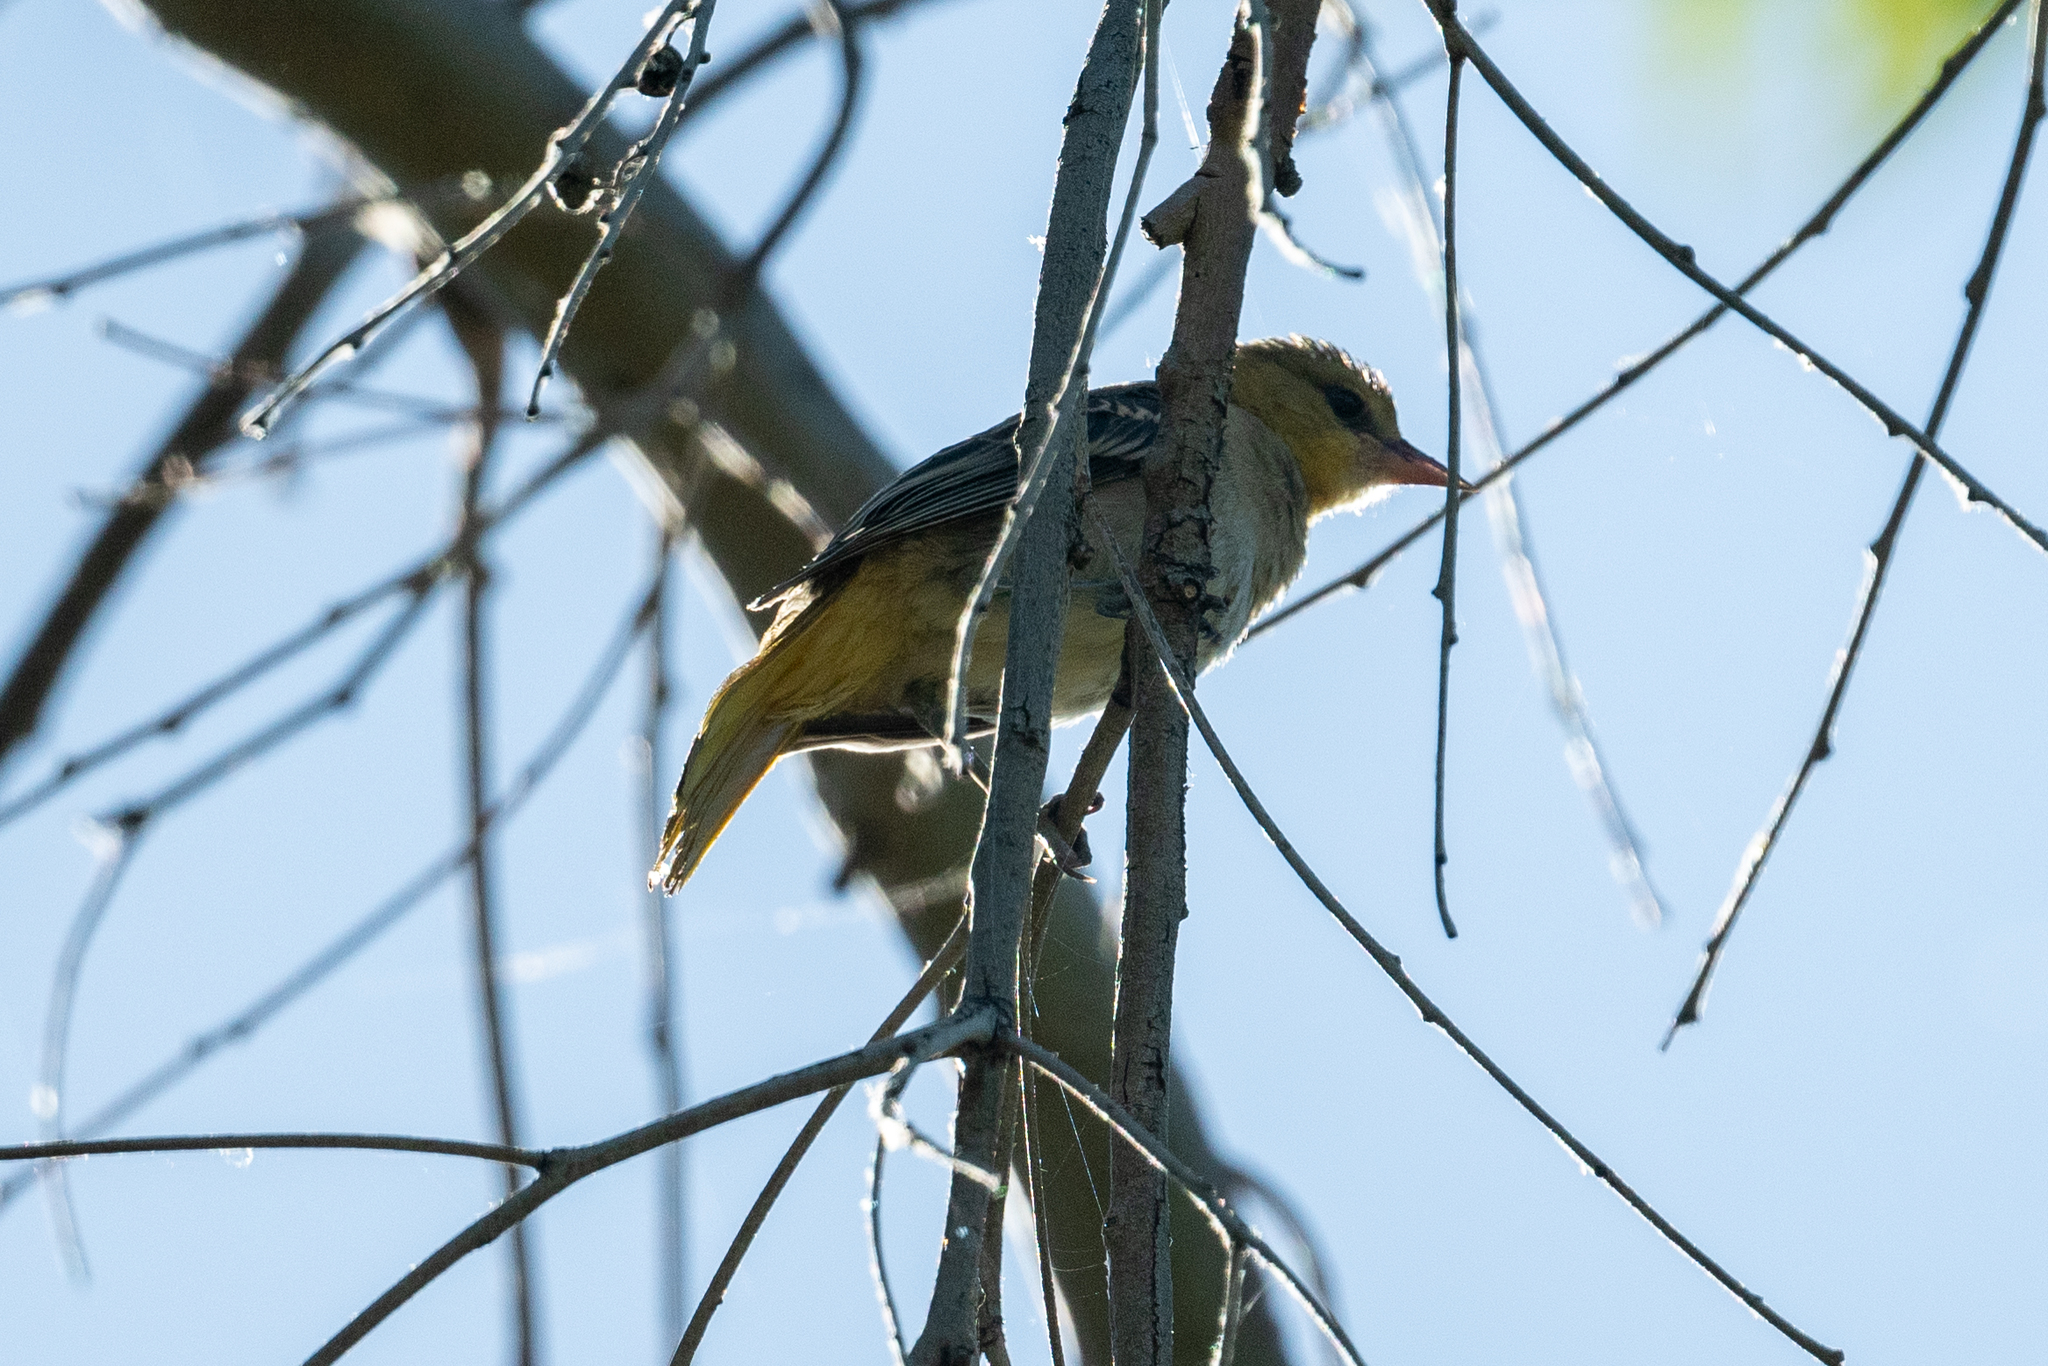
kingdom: Animalia
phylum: Chordata
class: Aves
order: Passeriformes
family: Icteridae
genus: Icterus
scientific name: Icterus bullockii
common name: Bullock's oriole
